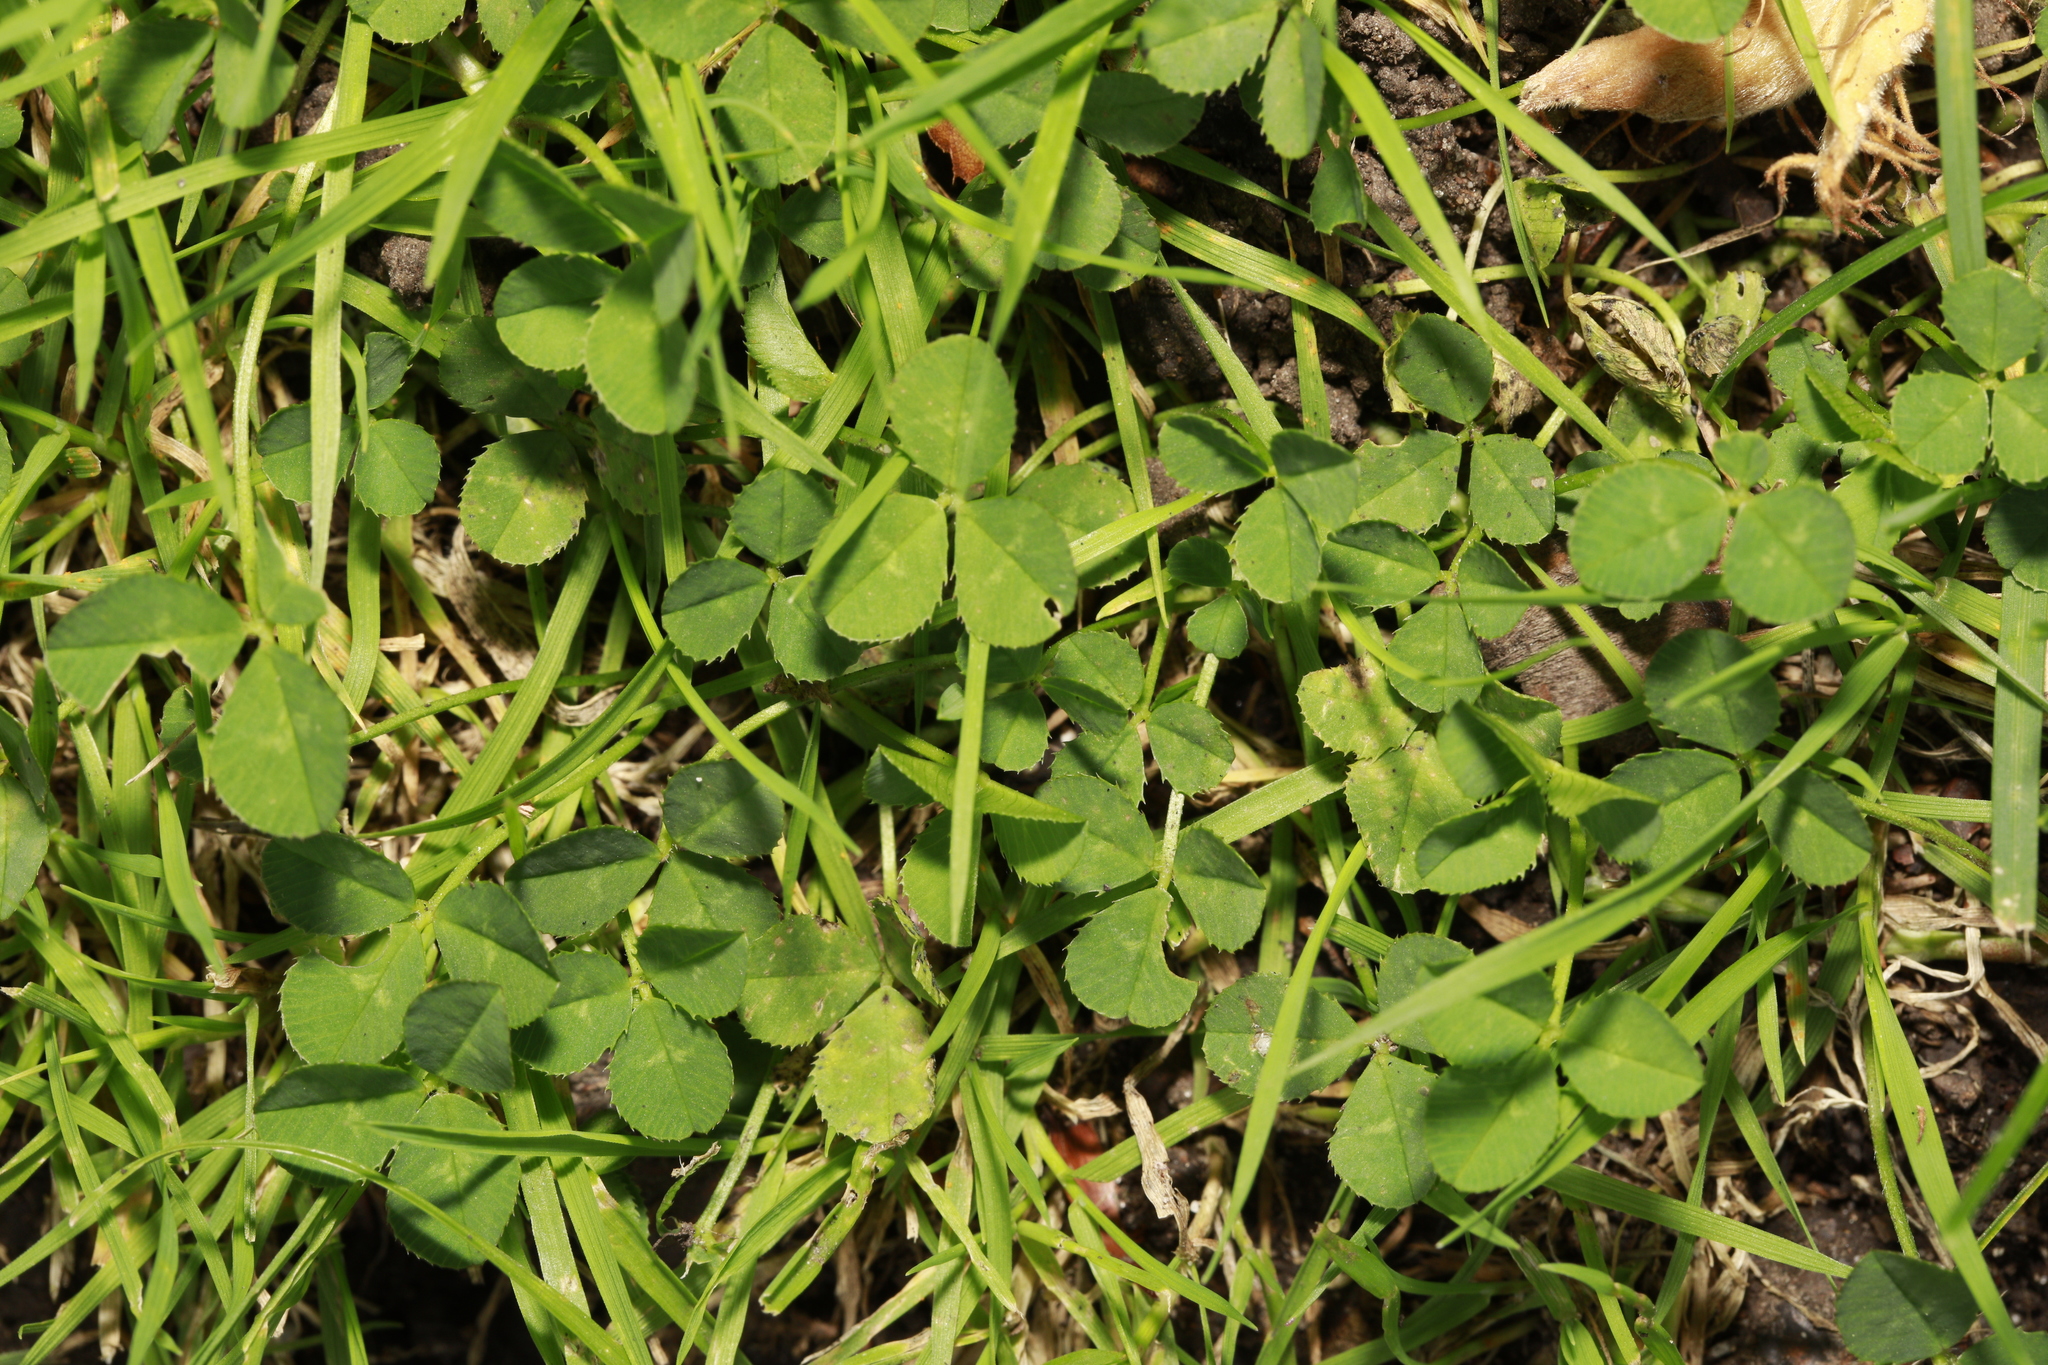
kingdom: Plantae
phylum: Tracheophyta
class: Magnoliopsida
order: Fabales
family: Fabaceae
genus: Trifolium
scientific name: Trifolium repens
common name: White clover
